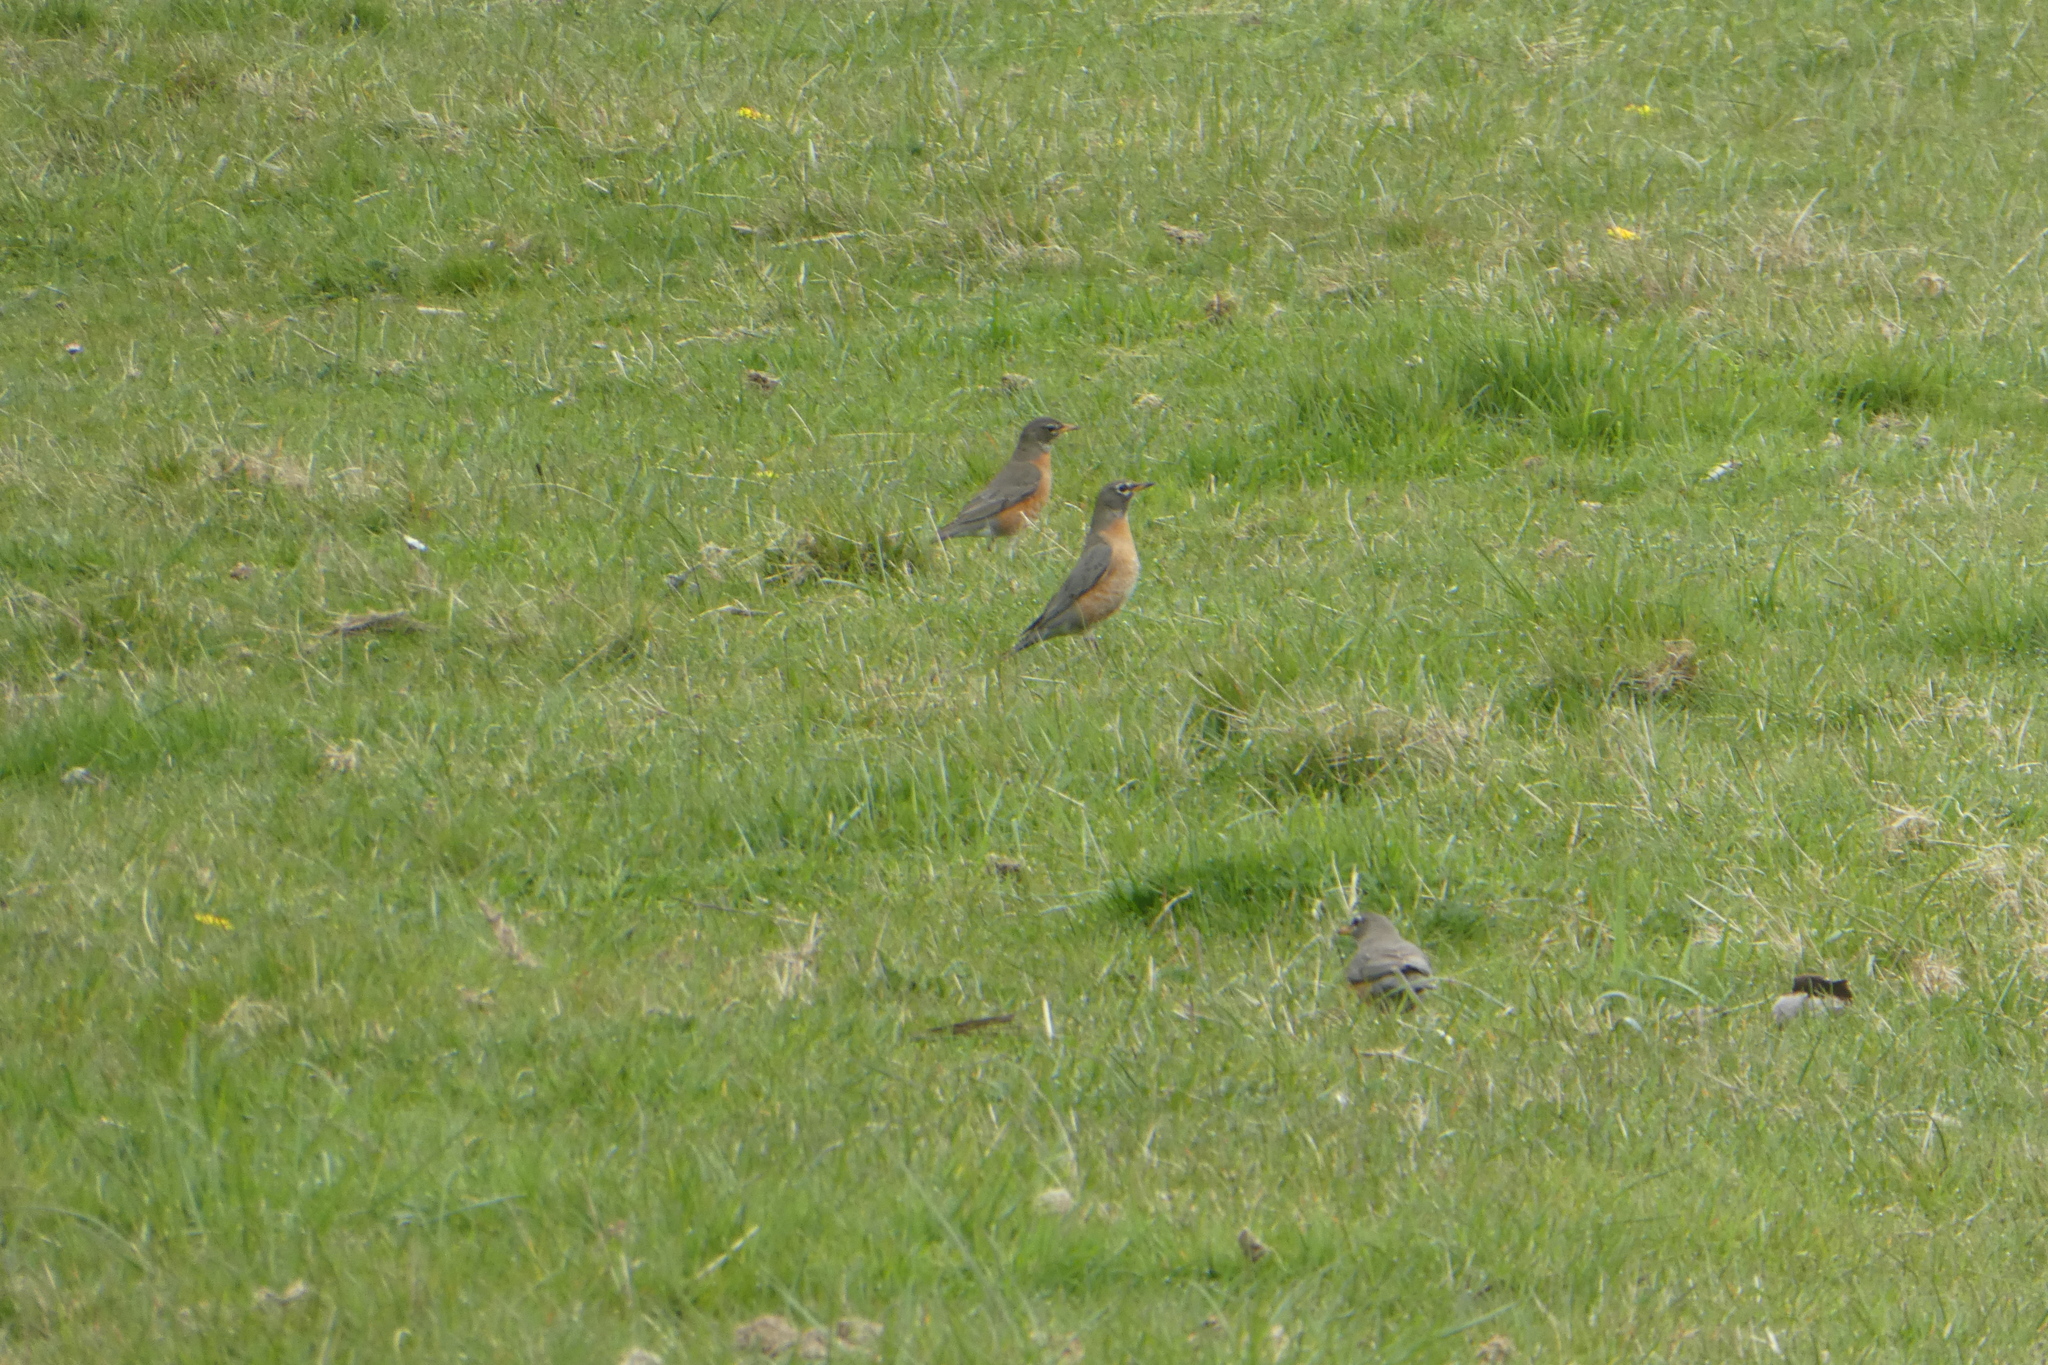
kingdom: Animalia
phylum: Chordata
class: Aves
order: Passeriformes
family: Turdidae
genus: Turdus
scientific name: Turdus migratorius
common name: American robin
